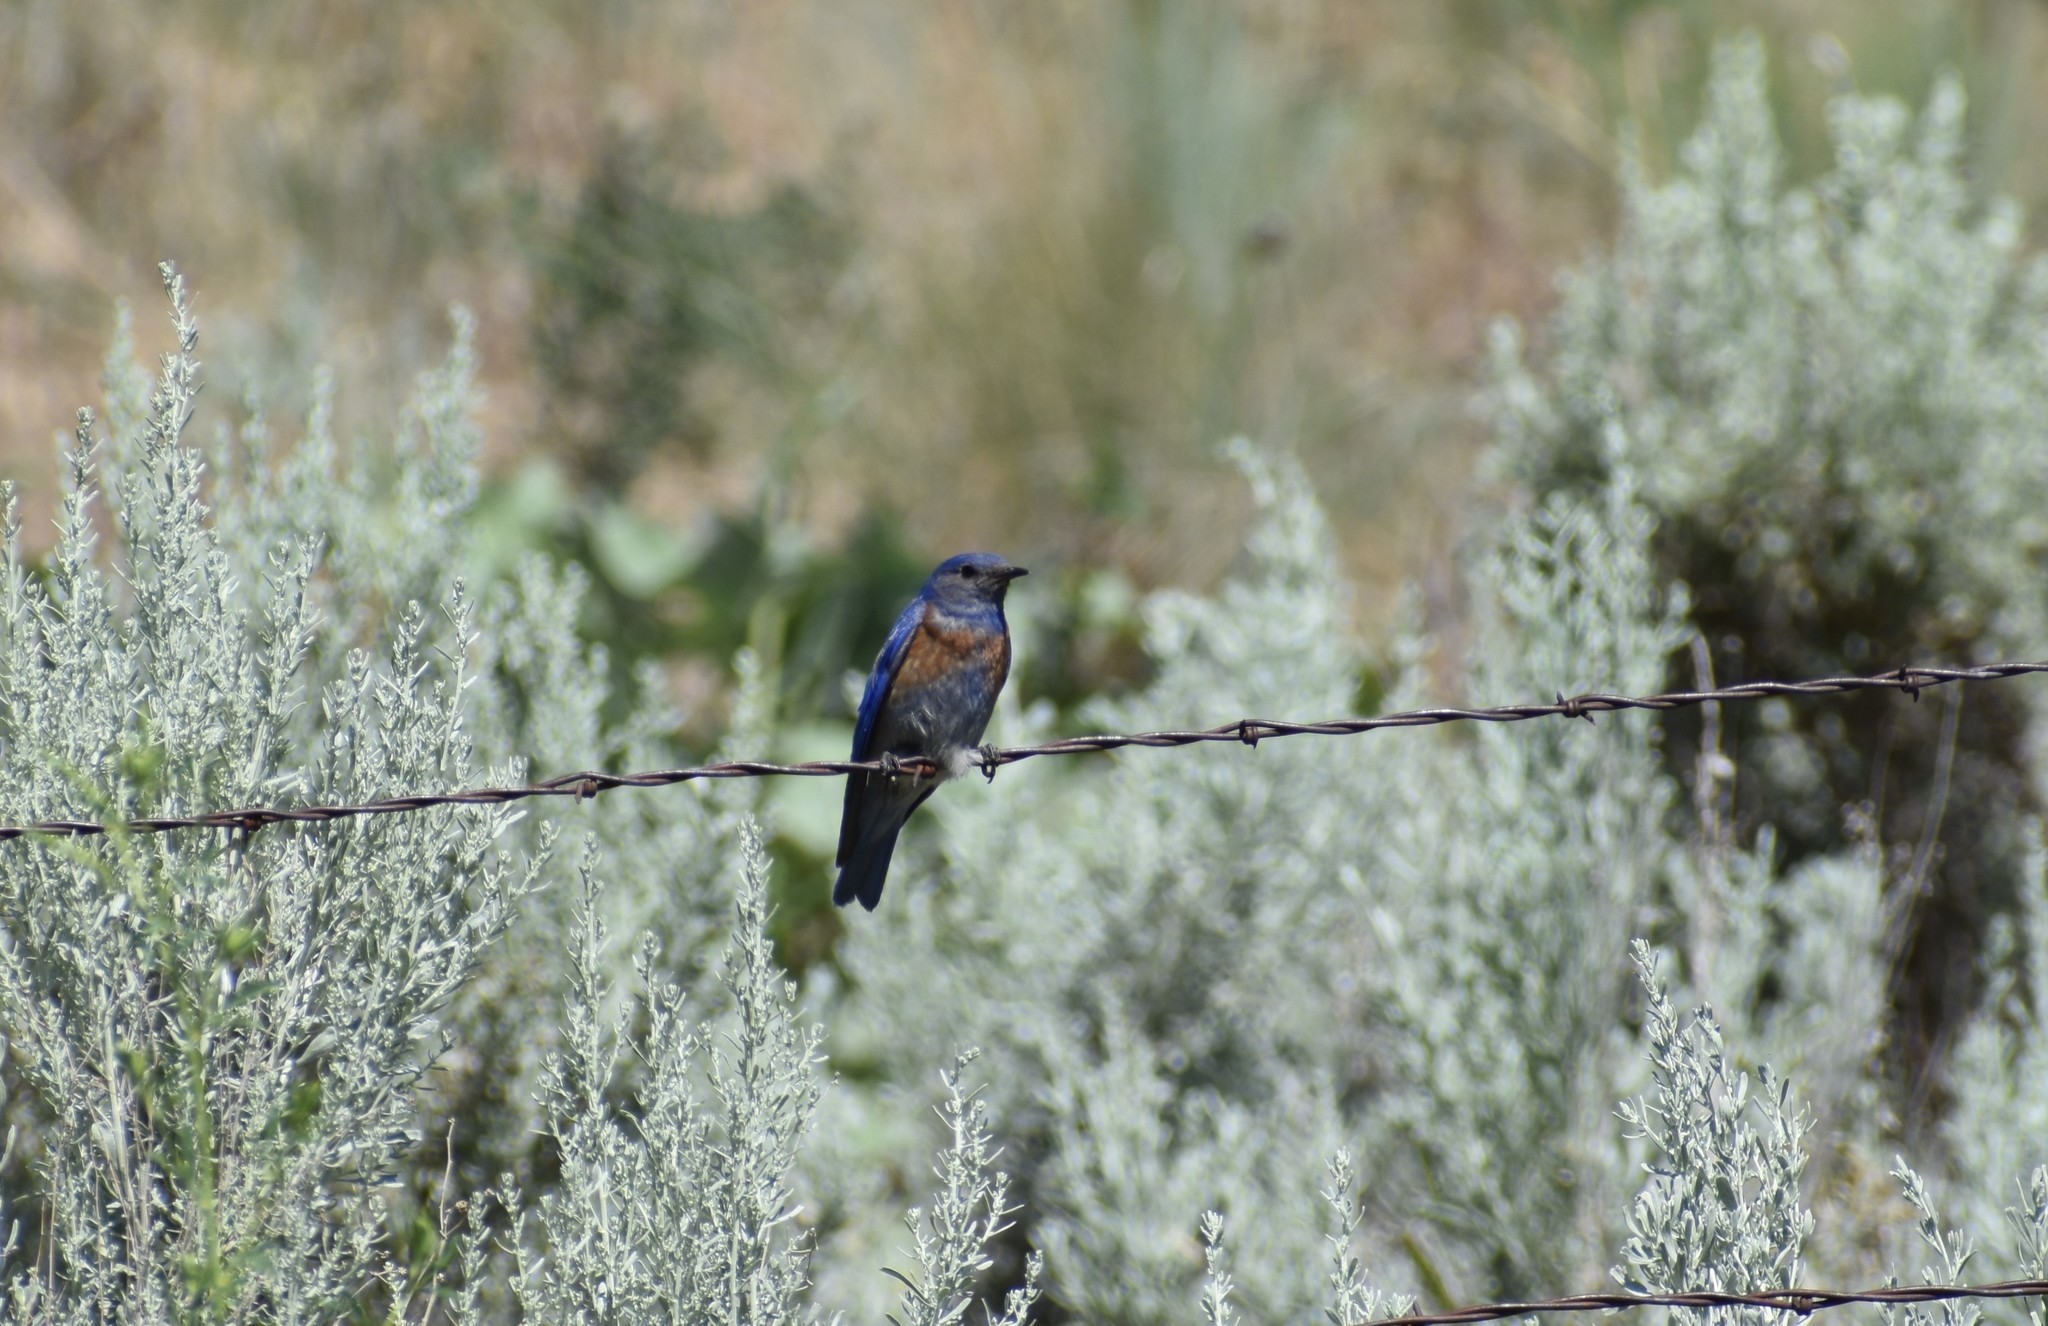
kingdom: Animalia
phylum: Chordata
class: Aves
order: Passeriformes
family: Turdidae
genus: Sialia
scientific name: Sialia mexicana
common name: Western bluebird
